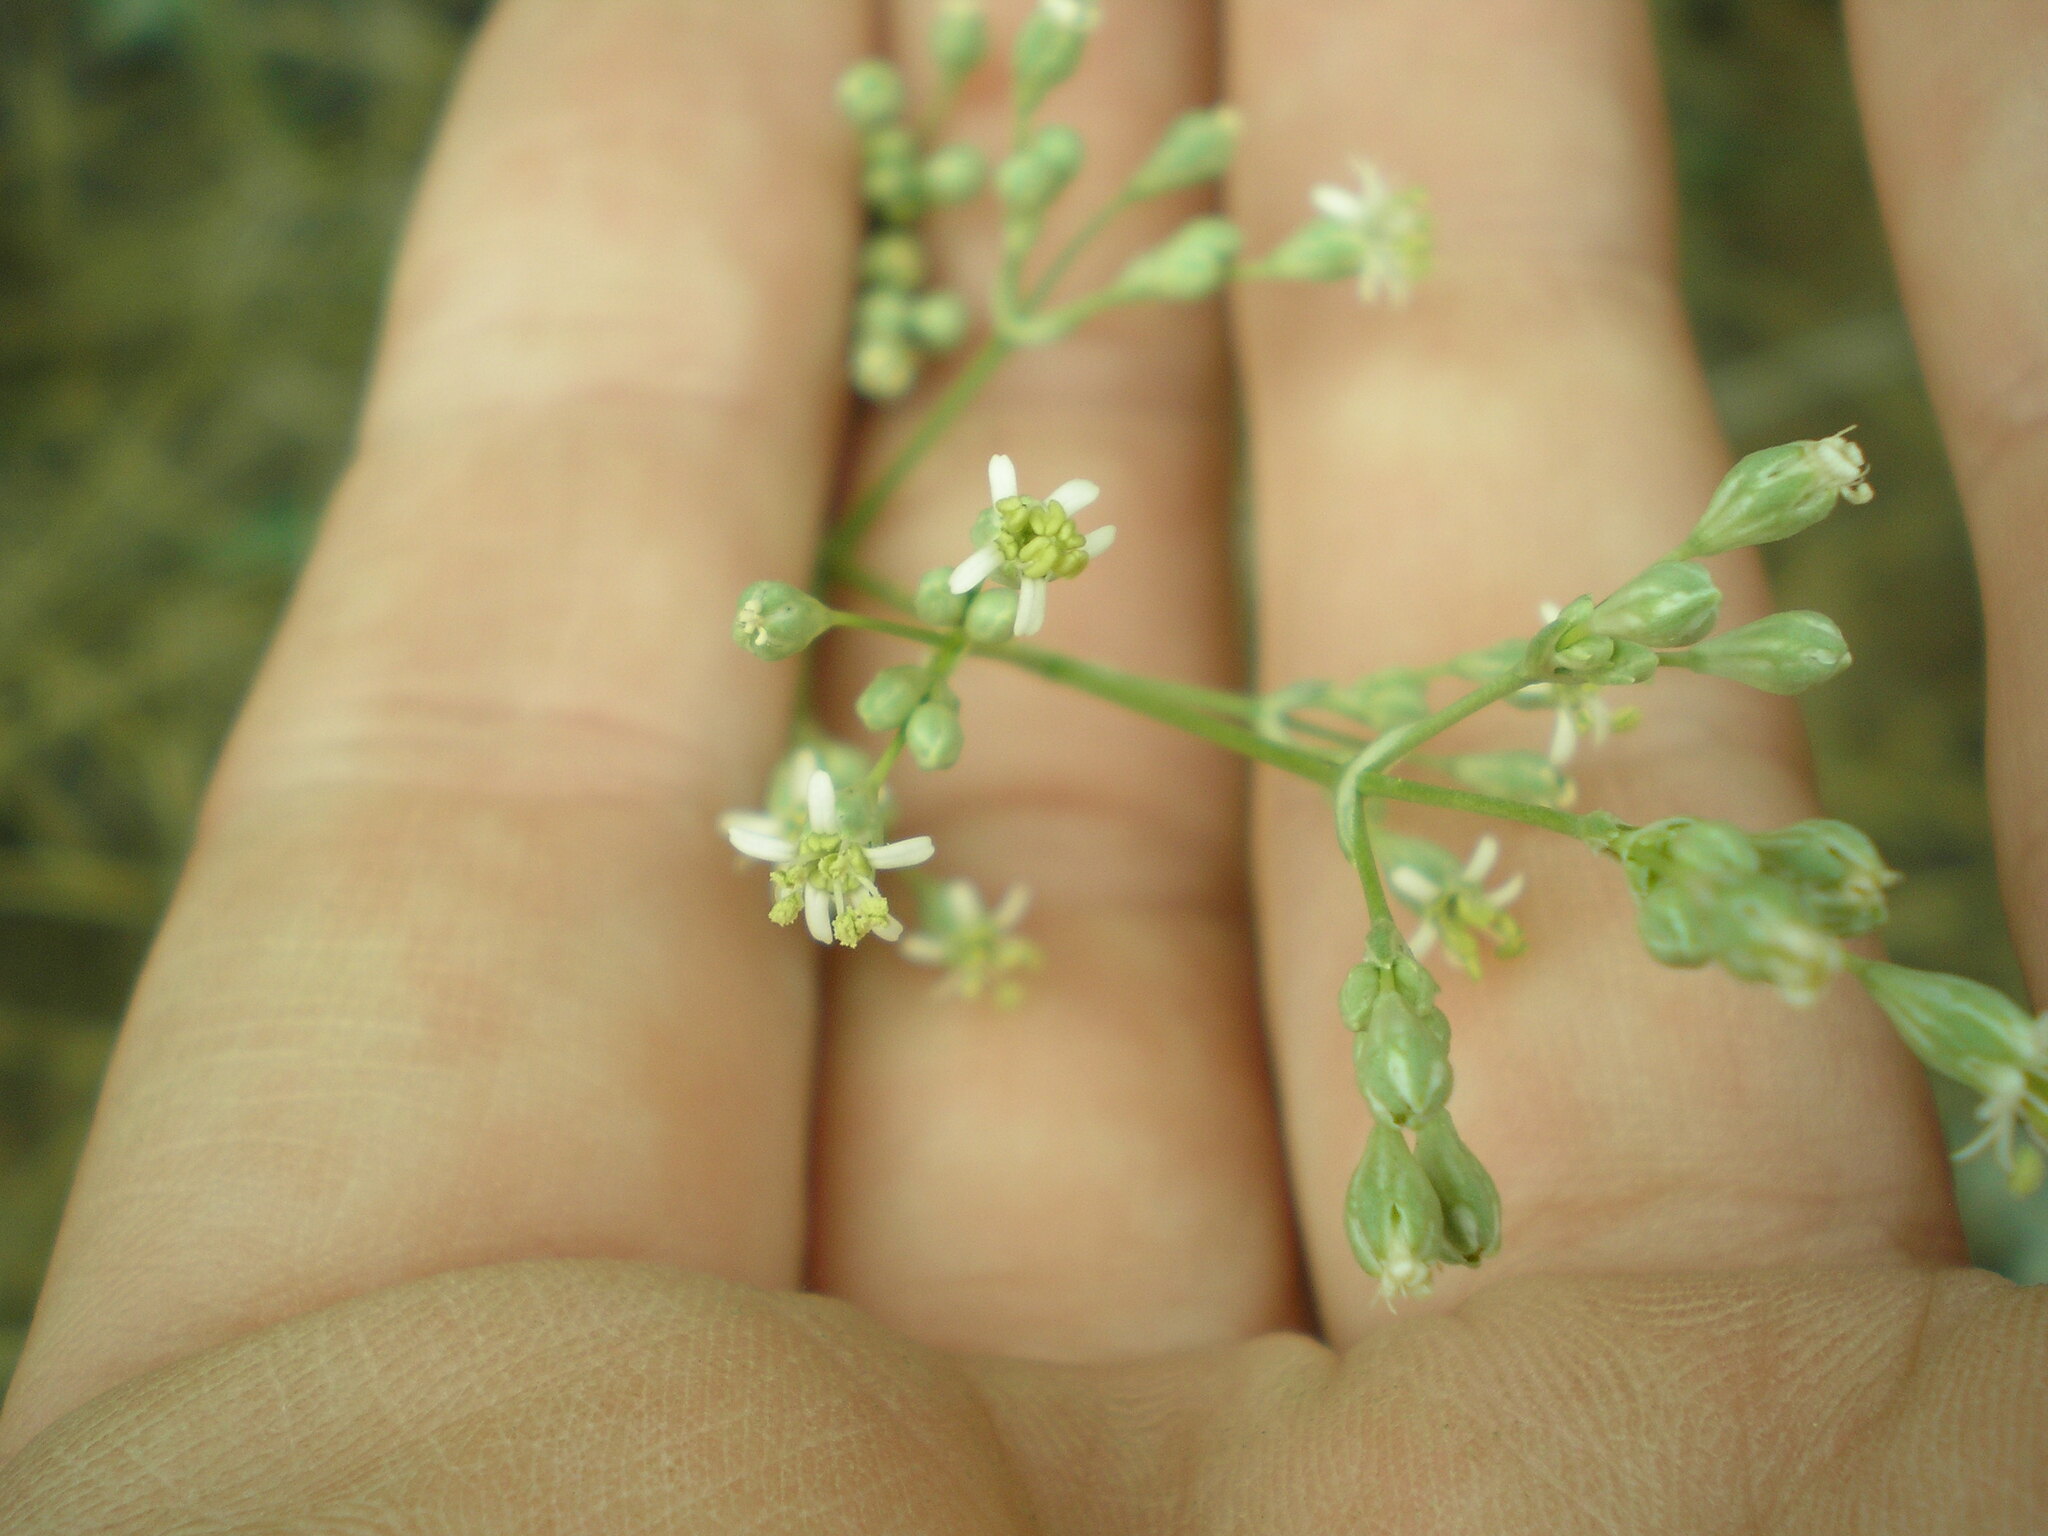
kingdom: Plantae
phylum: Tracheophyta
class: Magnoliopsida
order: Caryophyllales
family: Caryophyllaceae
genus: Silene
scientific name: Silene wolgensis
